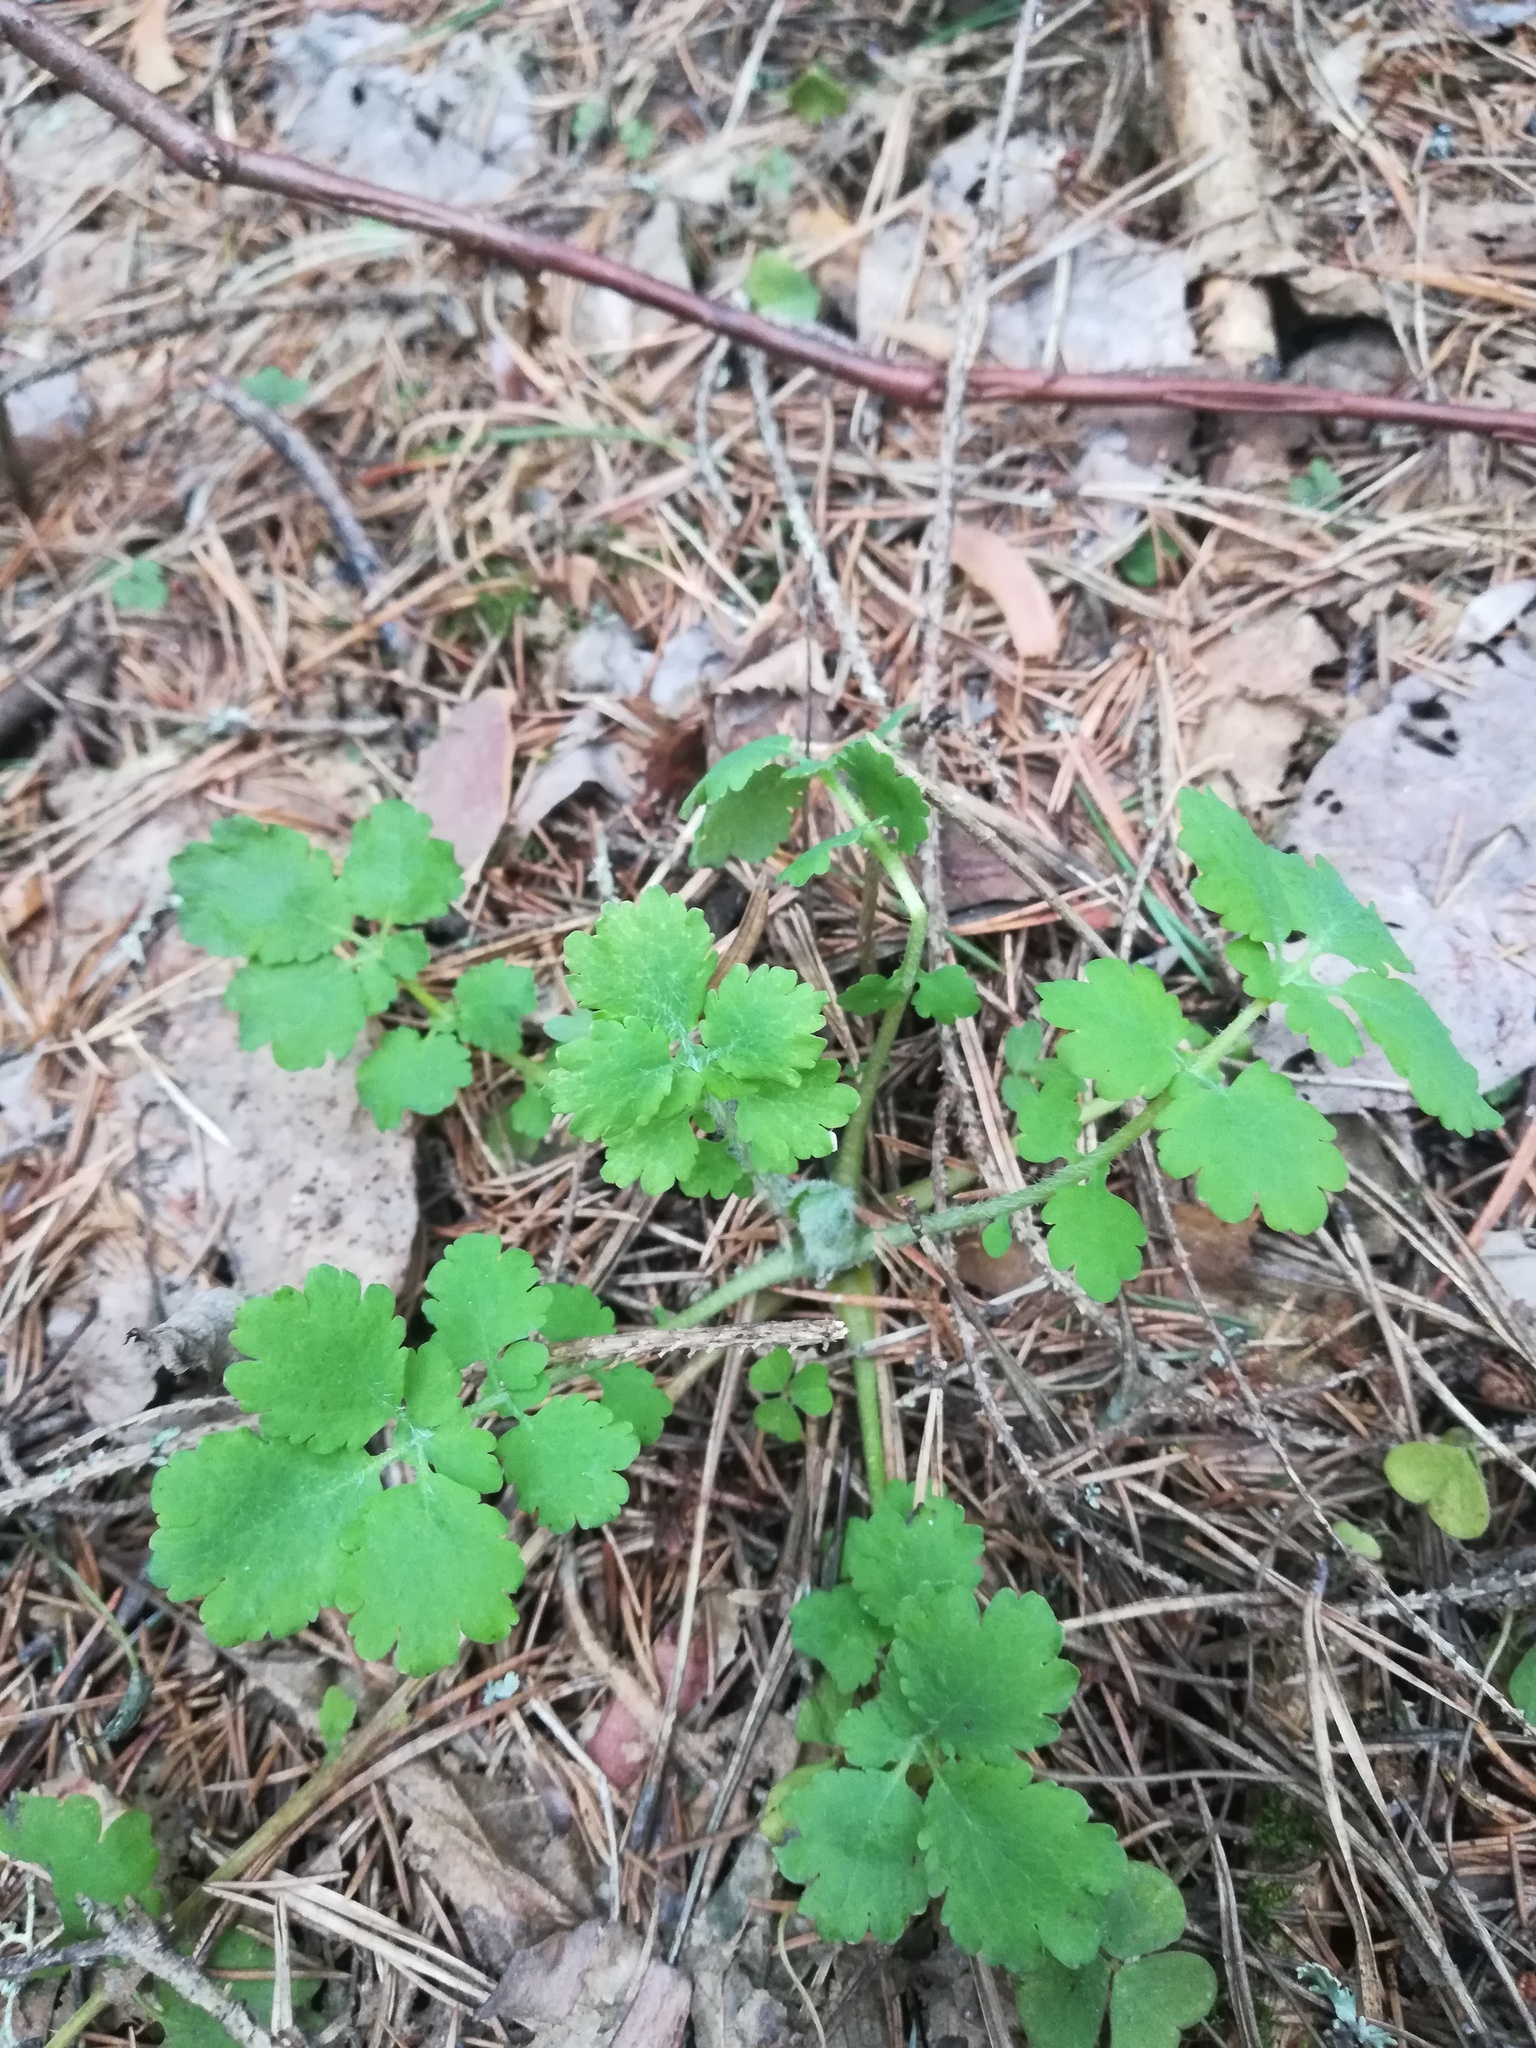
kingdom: Plantae
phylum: Tracheophyta
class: Magnoliopsida
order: Ranunculales
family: Papaveraceae
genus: Chelidonium
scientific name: Chelidonium majus
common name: Greater celandine
